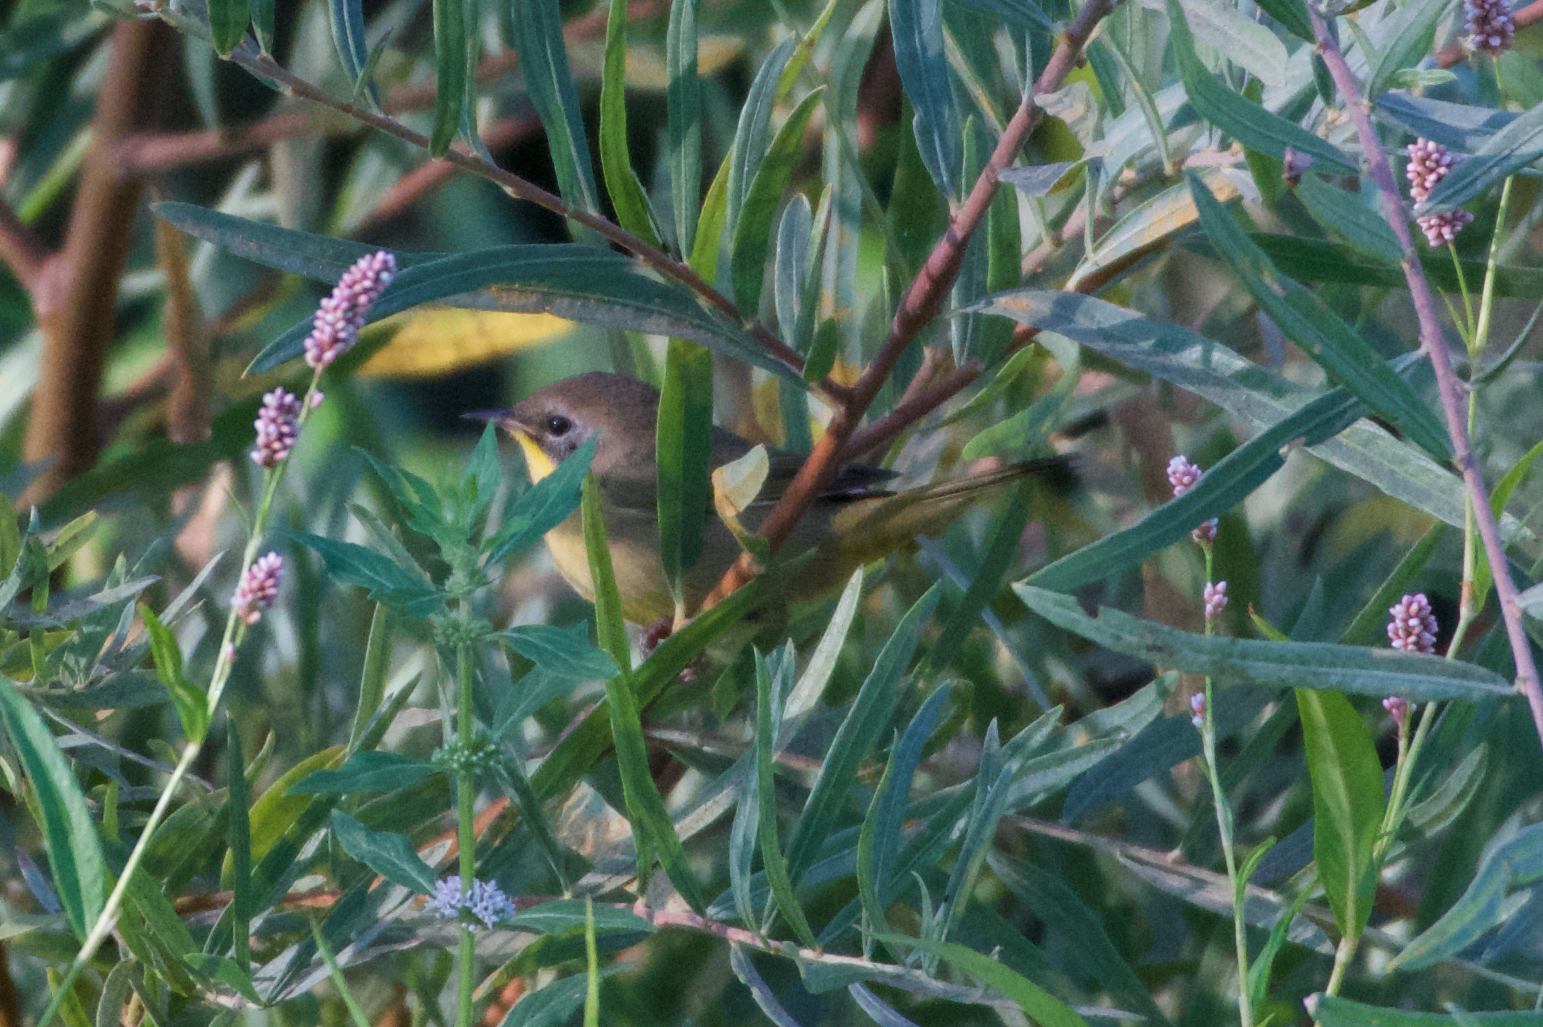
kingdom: Animalia
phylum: Chordata
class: Aves
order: Passeriformes
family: Parulidae
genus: Geothlypis
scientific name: Geothlypis trichas
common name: Common yellowthroat
